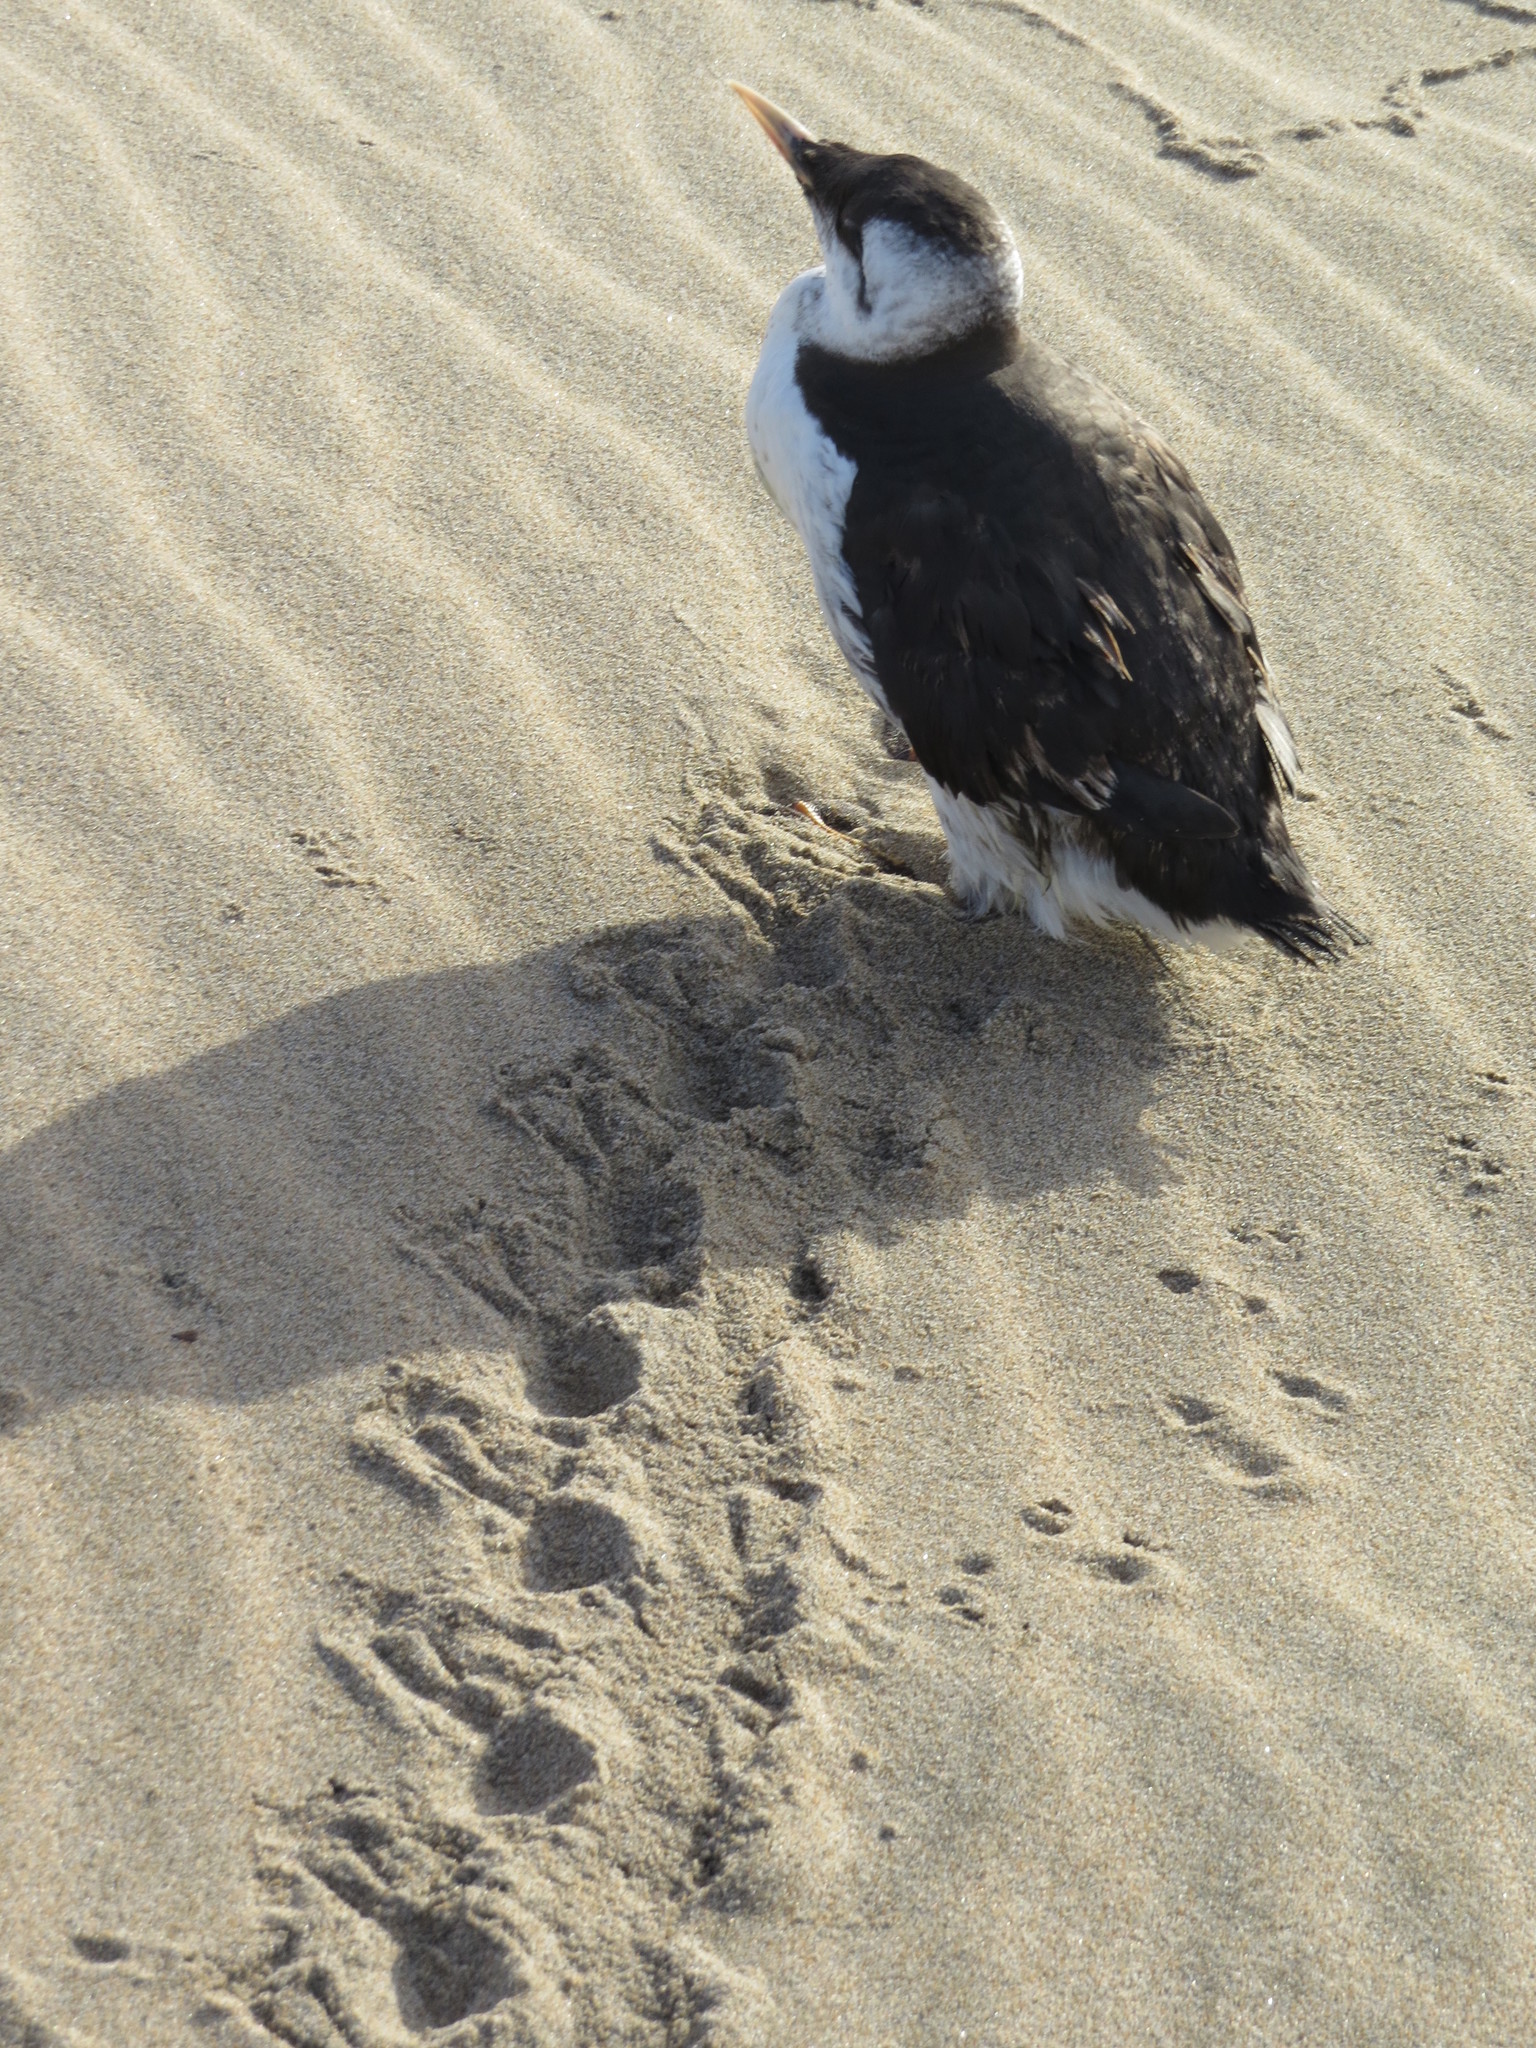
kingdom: Animalia
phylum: Chordata
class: Aves
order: Charadriiformes
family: Alcidae
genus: Uria
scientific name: Uria aalge
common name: Common murre
